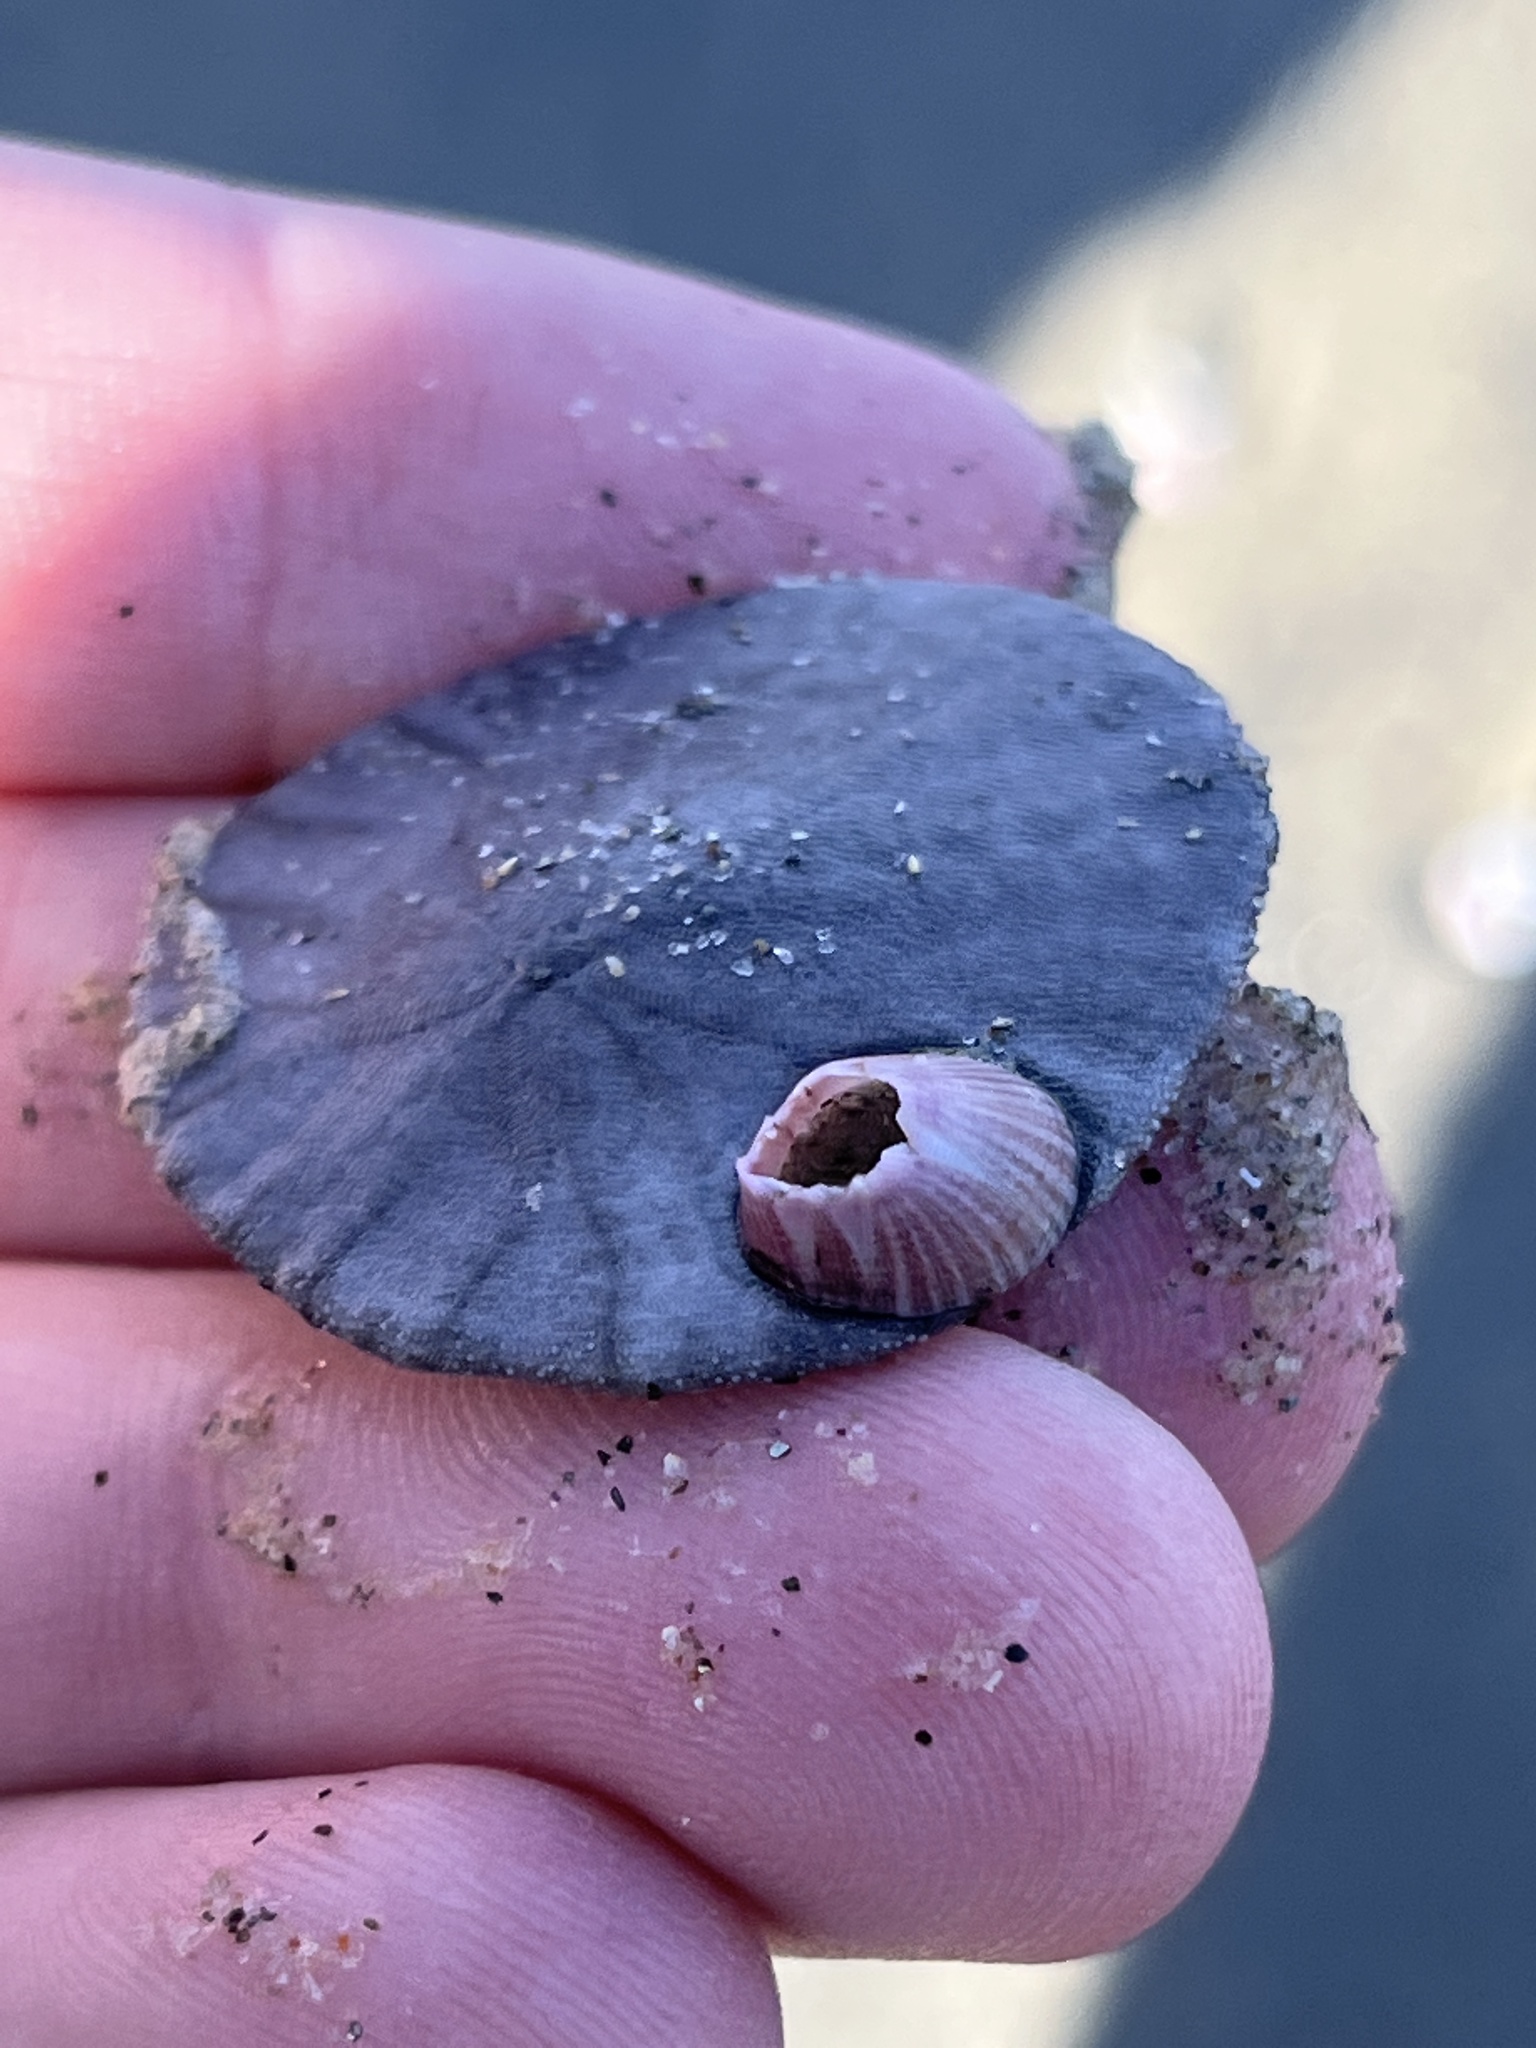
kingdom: Animalia
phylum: Echinodermata
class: Echinoidea
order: Echinolampadacea
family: Dendrasteridae
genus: Dendraster
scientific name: Dendraster excentricus
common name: Eccentric sand dollar sea urchin
